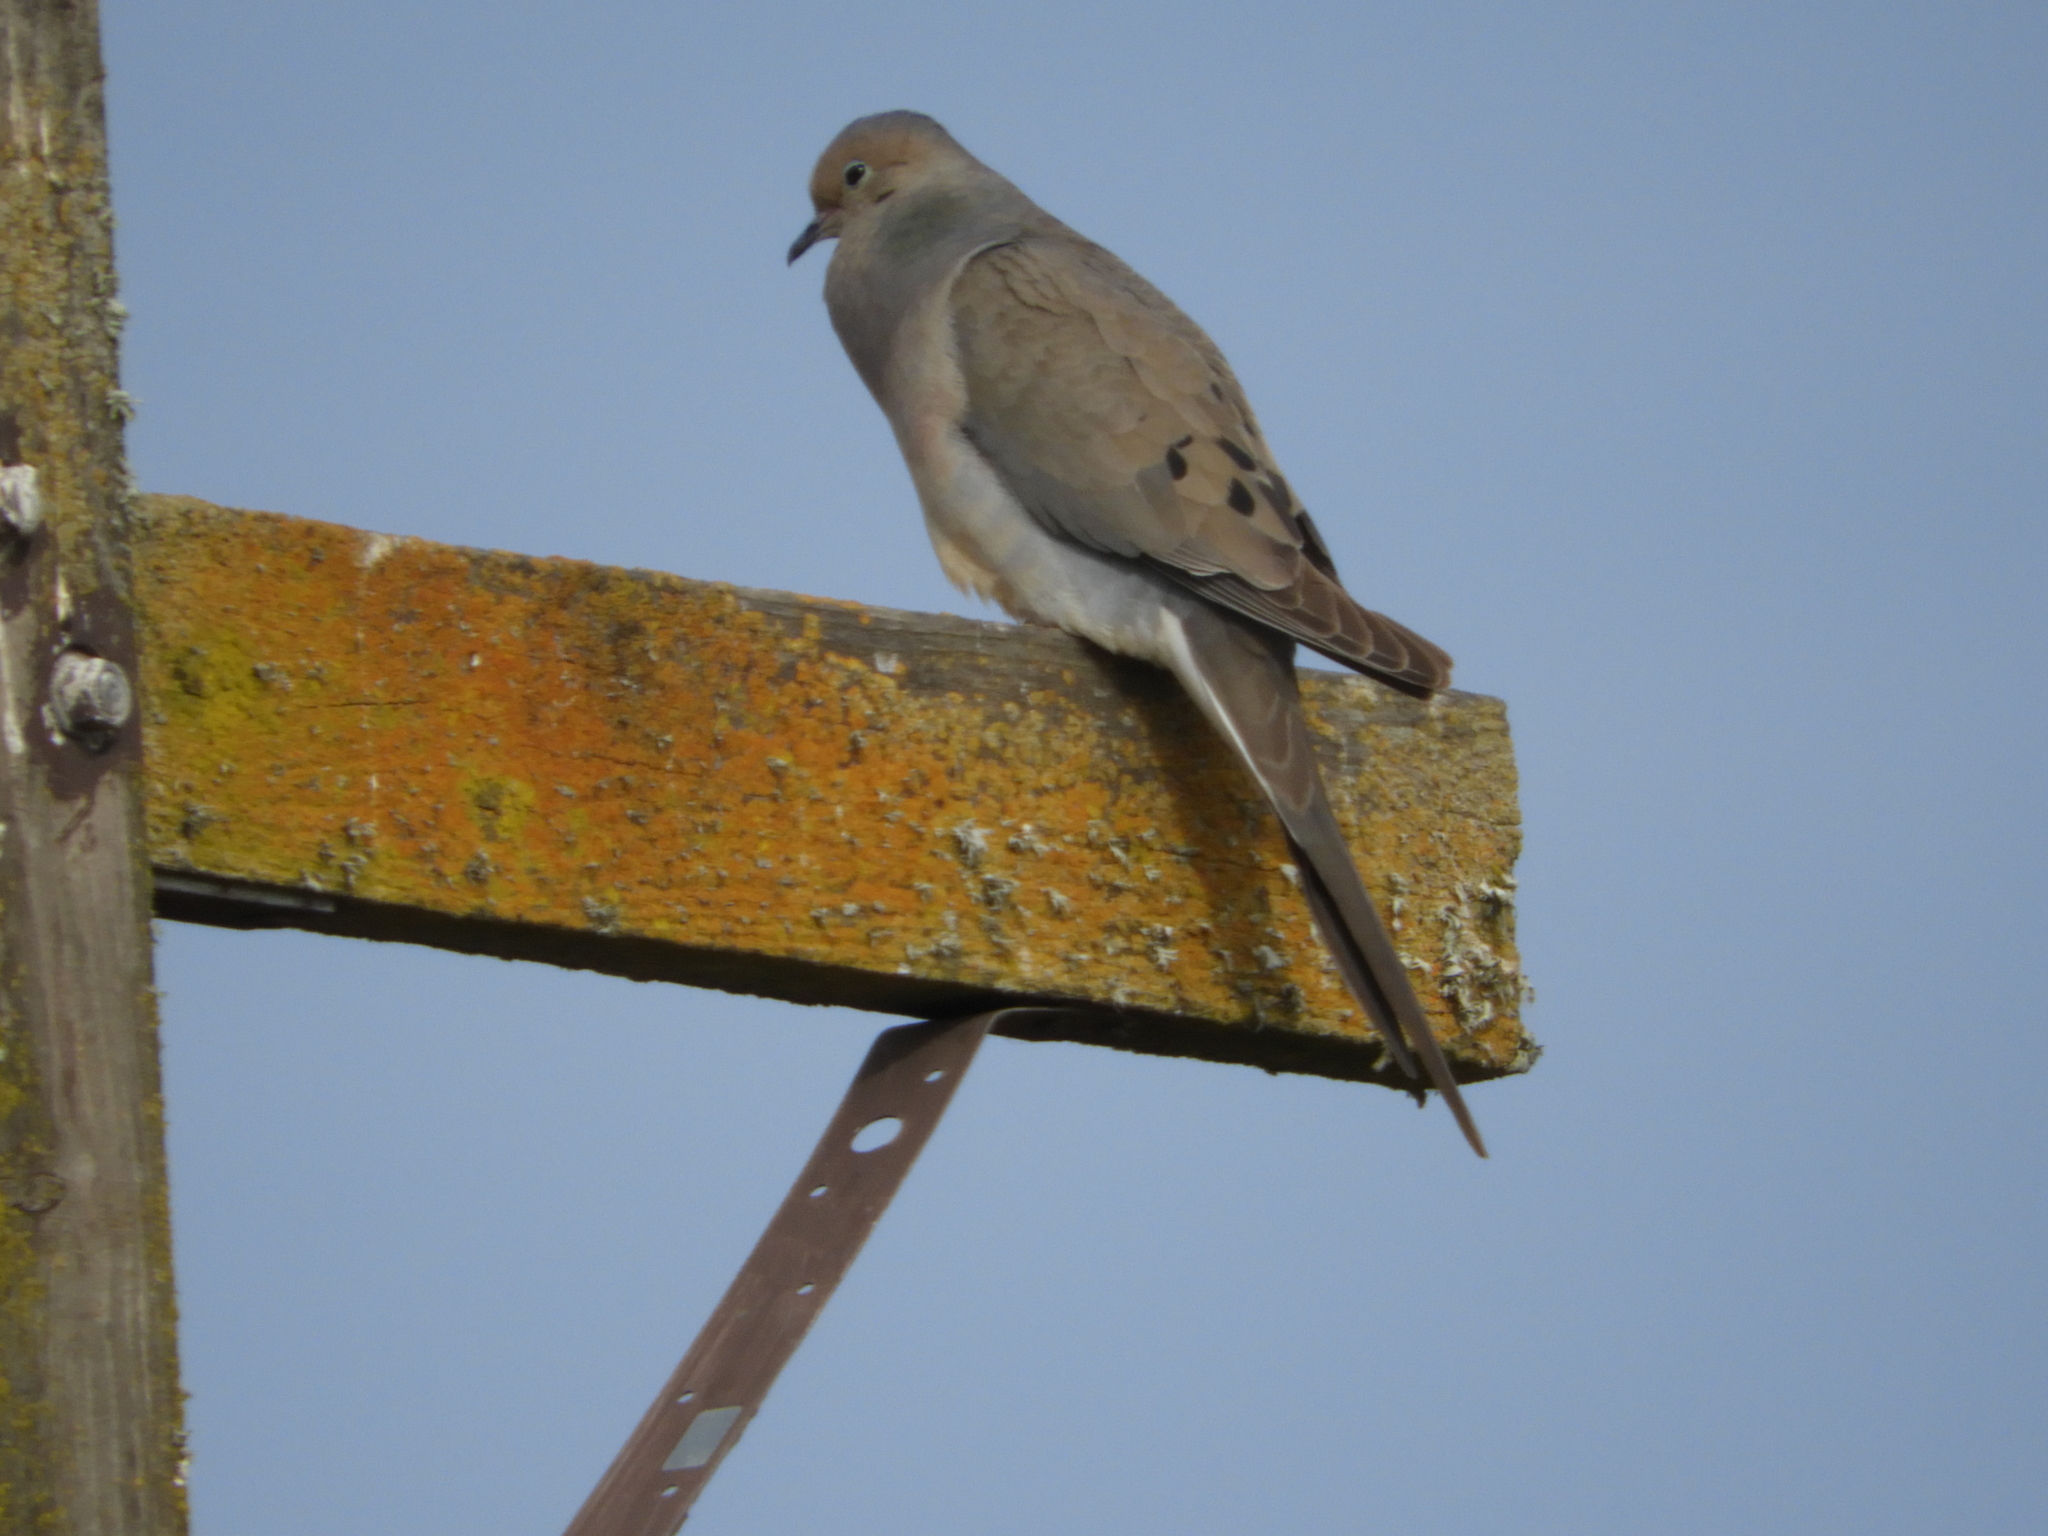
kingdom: Animalia
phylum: Chordata
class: Aves
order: Columbiformes
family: Columbidae
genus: Zenaida
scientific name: Zenaida macroura
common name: Mourning dove
